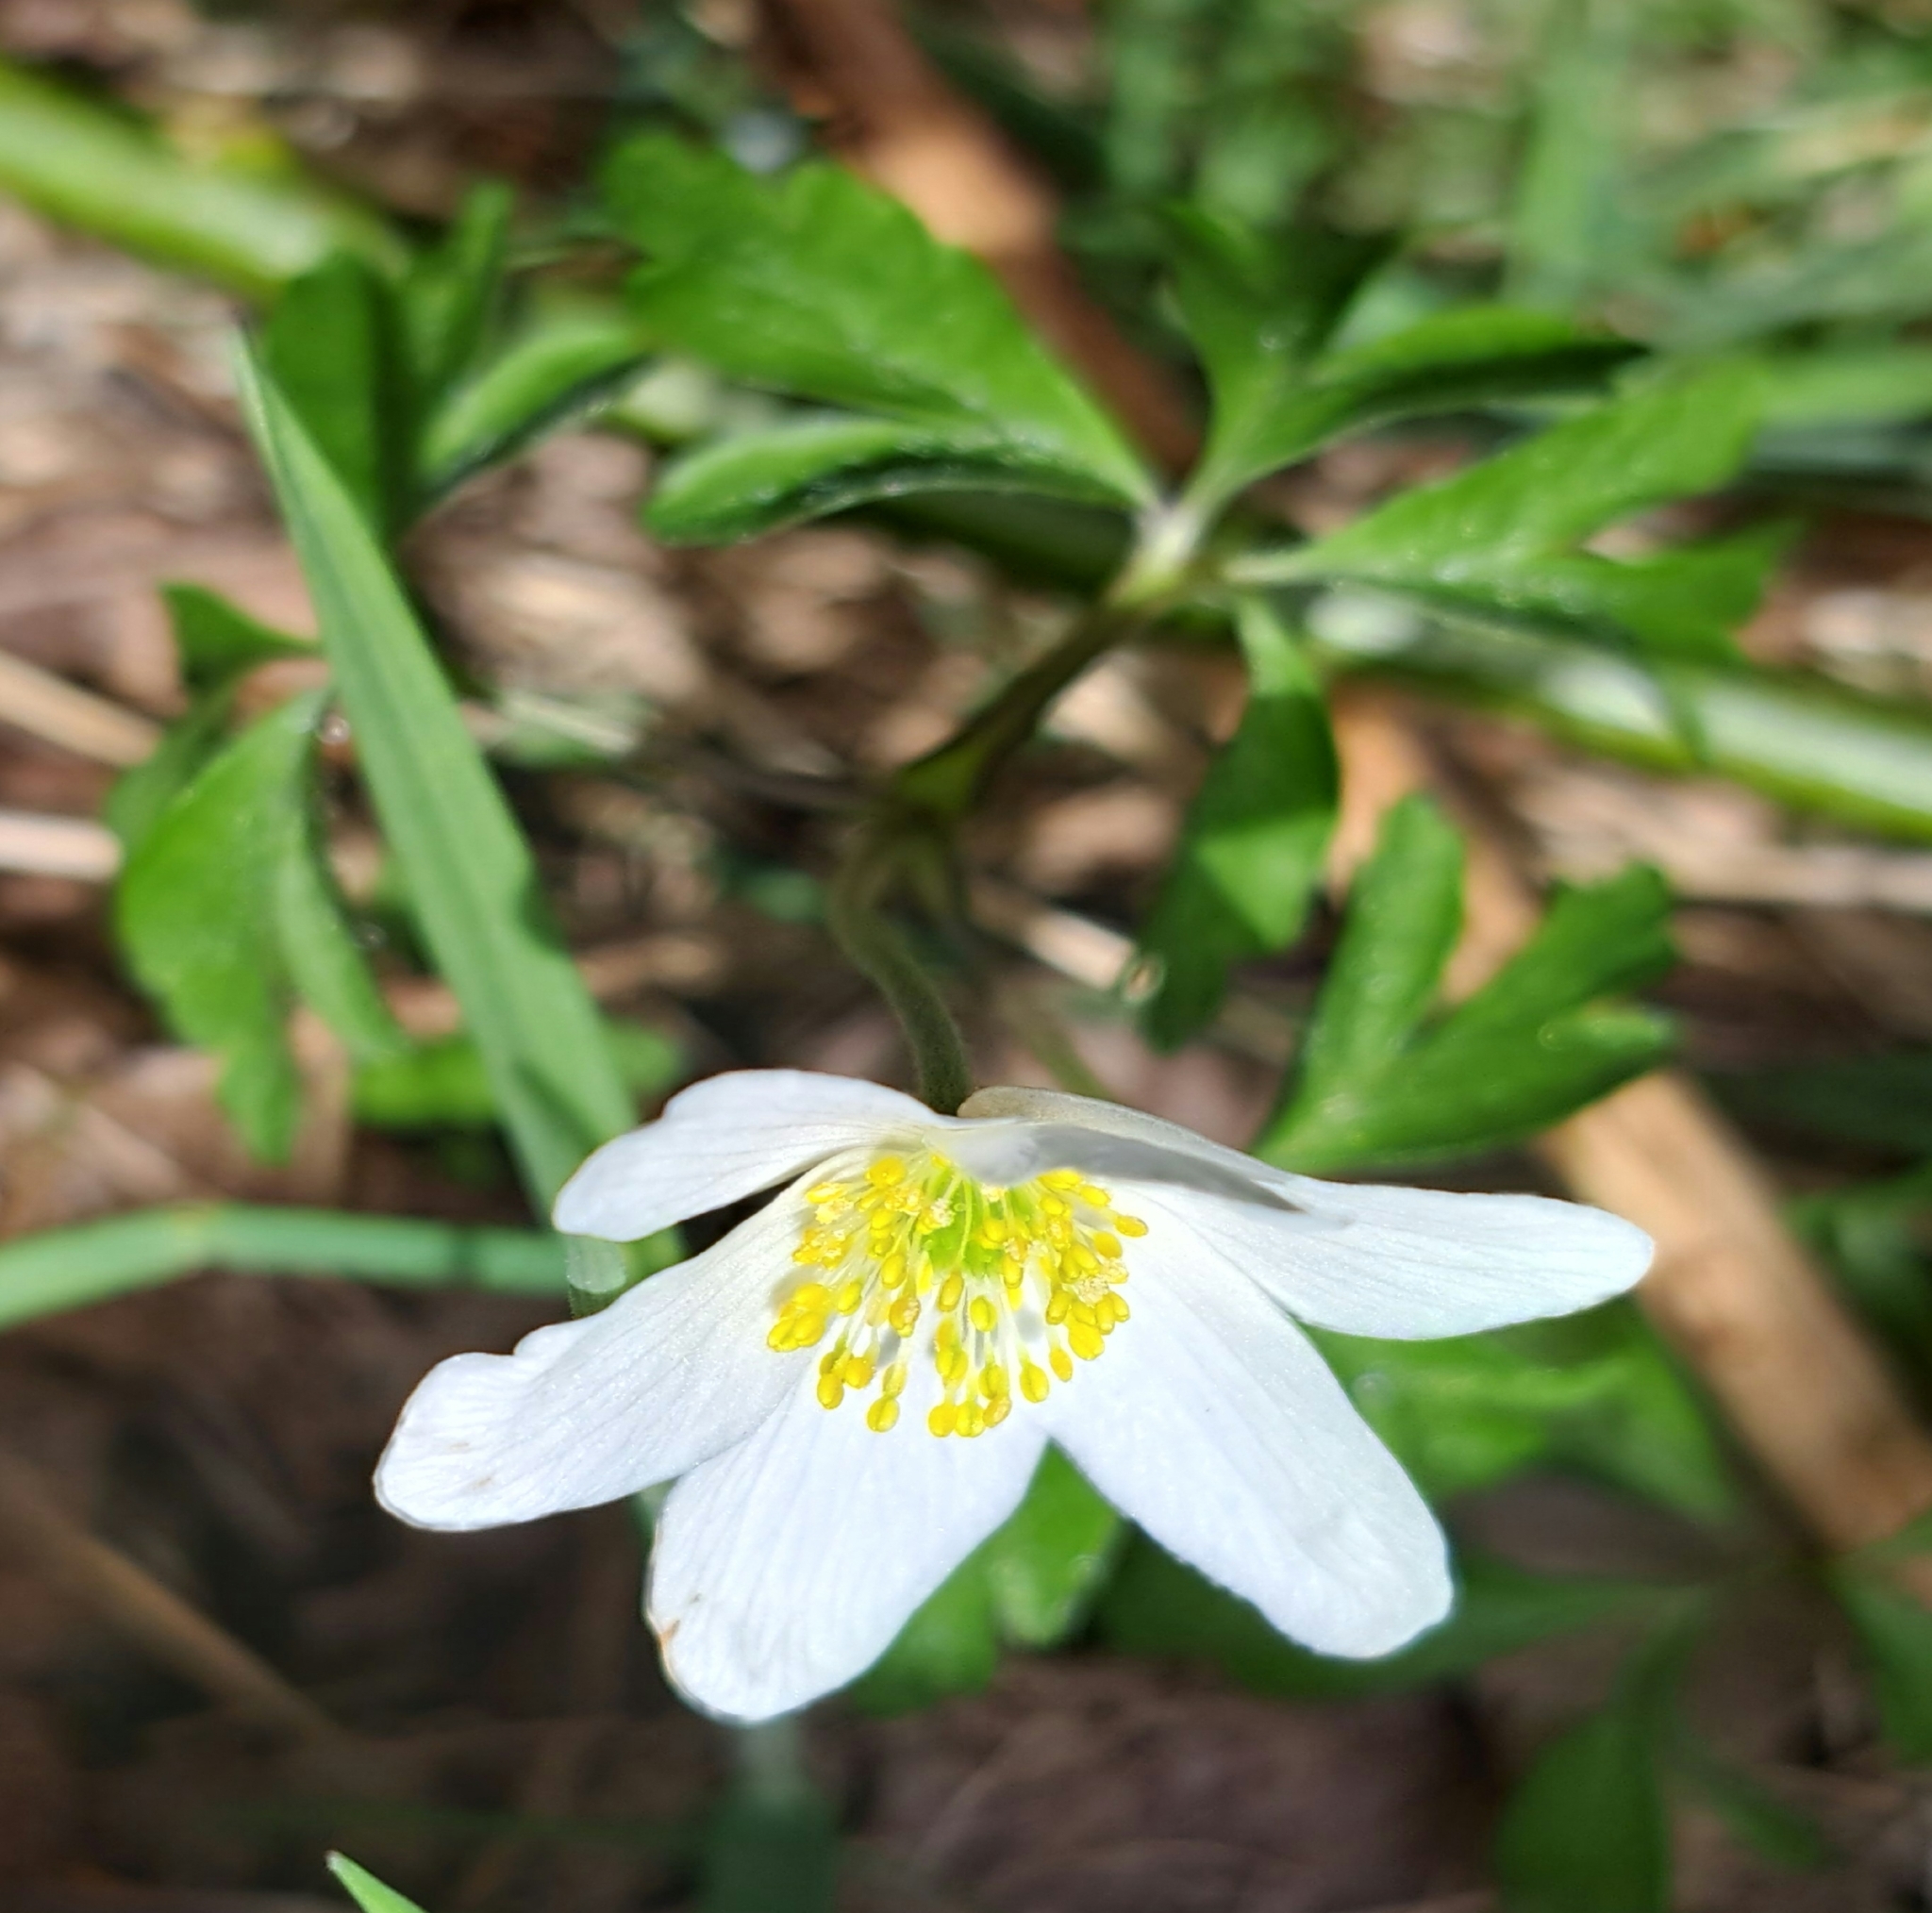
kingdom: Plantae
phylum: Tracheophyta
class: Magnoliopsida
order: Ranunculales
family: Ranunculaceae
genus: Anemone
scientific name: Anemone nemorosa
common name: Wood anemone
